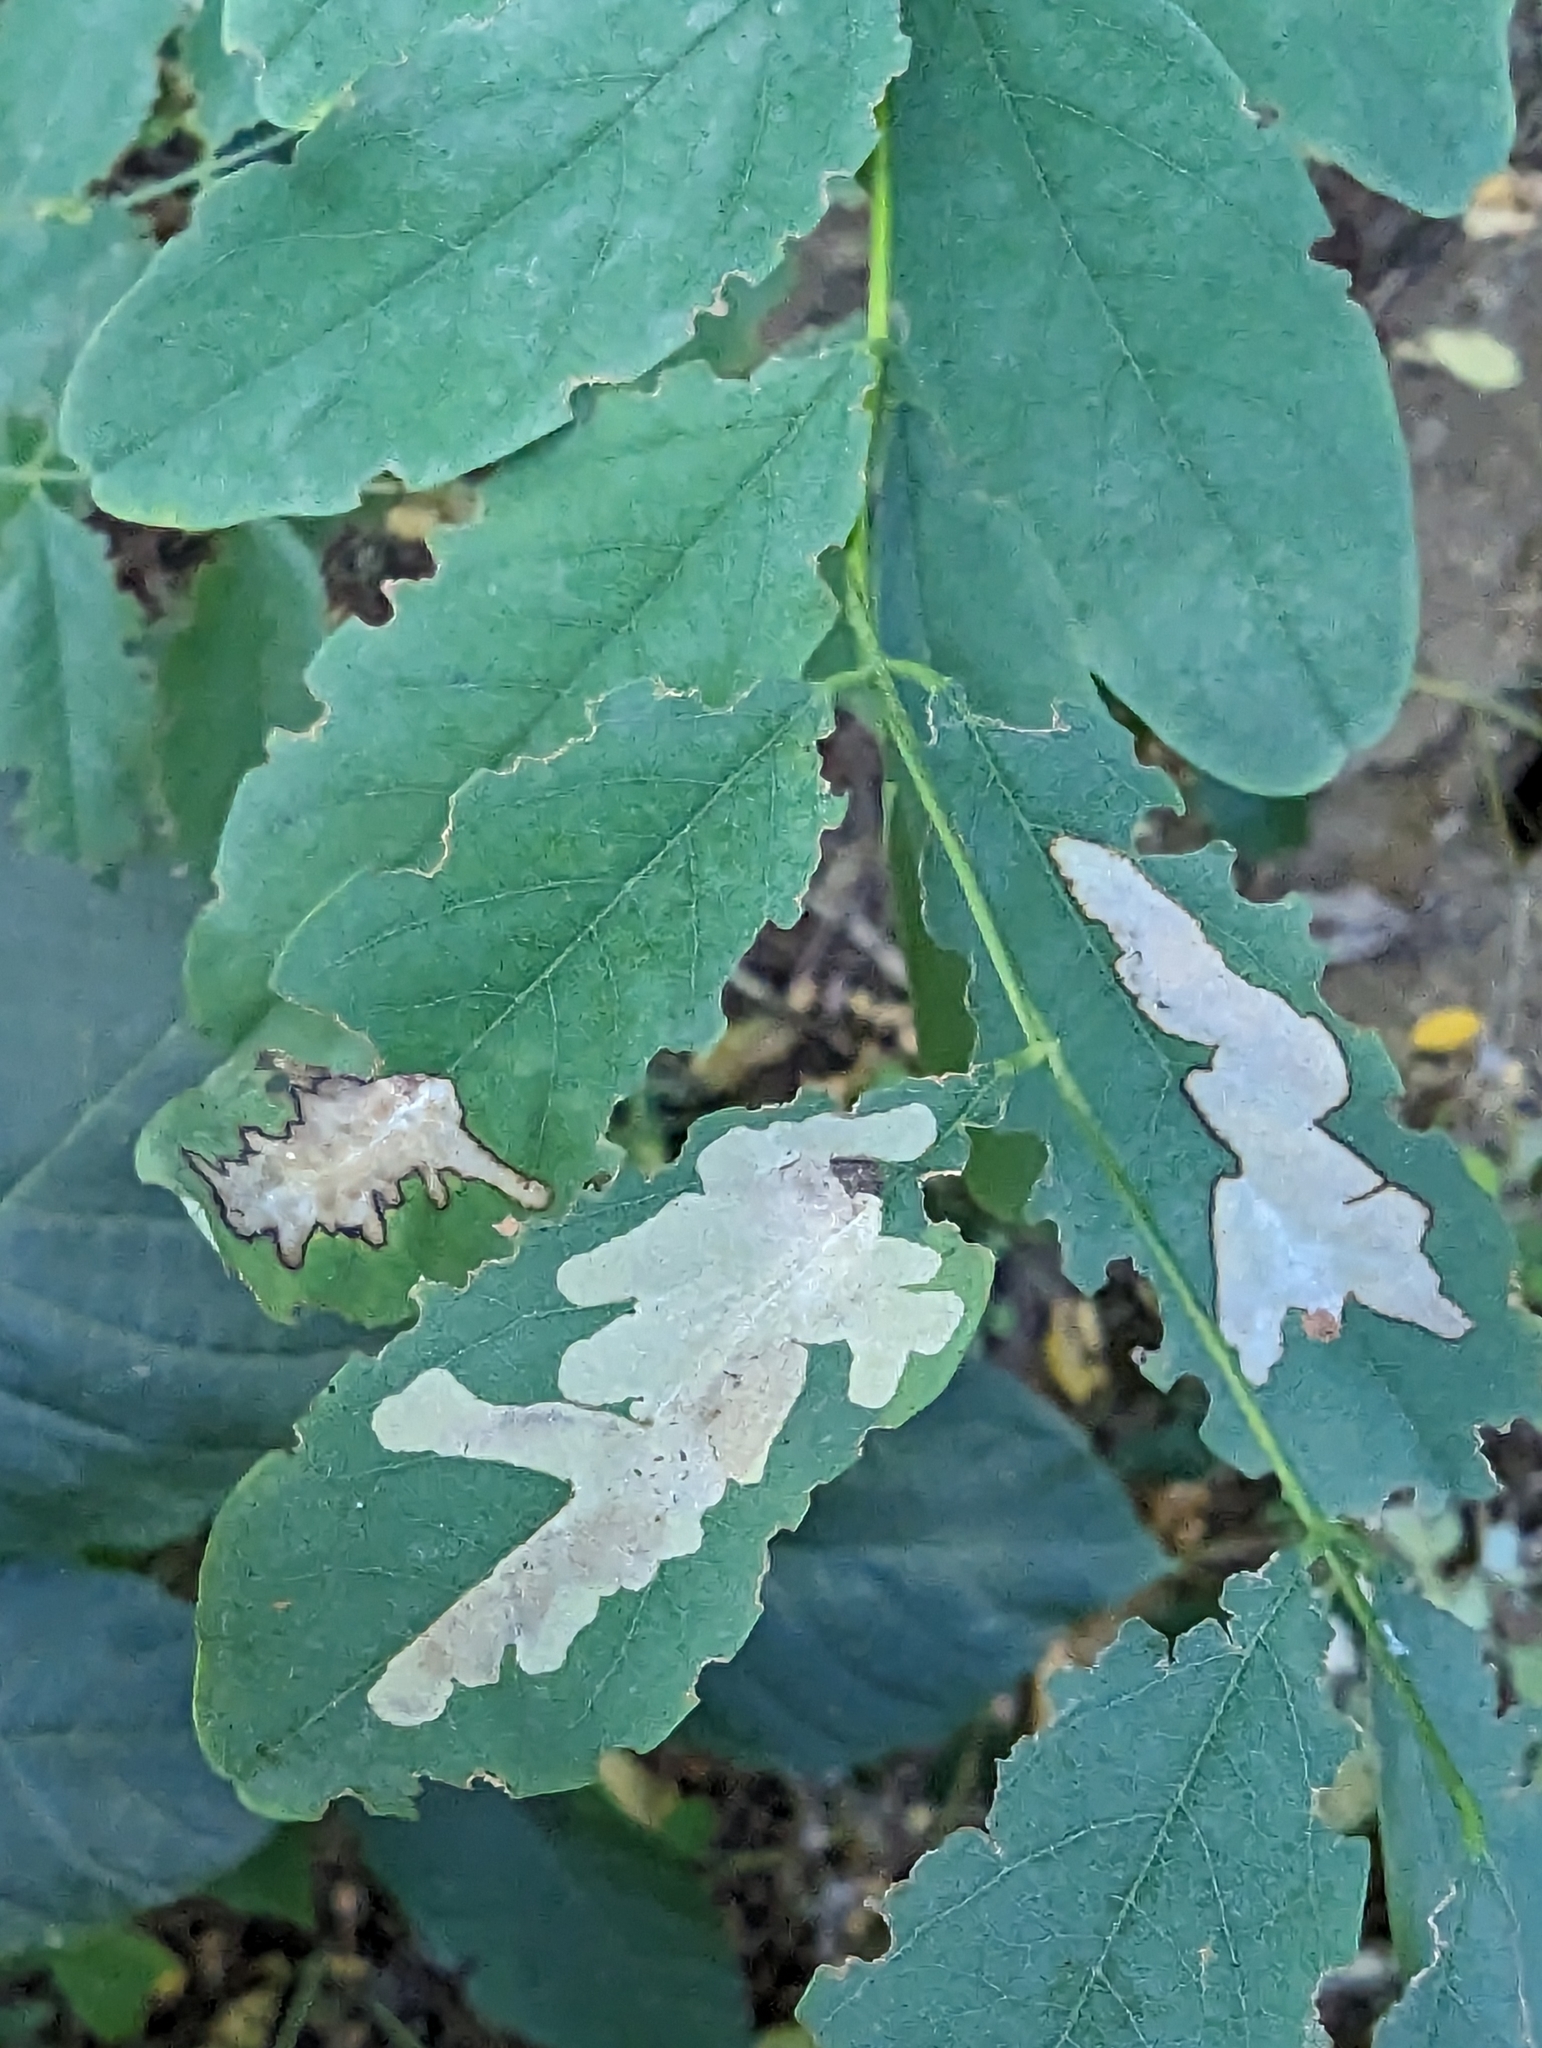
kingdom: Animalia
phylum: Arthropoda
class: Insecta
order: Lepidoptera
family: Gracillariidae
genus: Parectopa
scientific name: Parectopa robiniella
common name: Locust digitate leafminer
